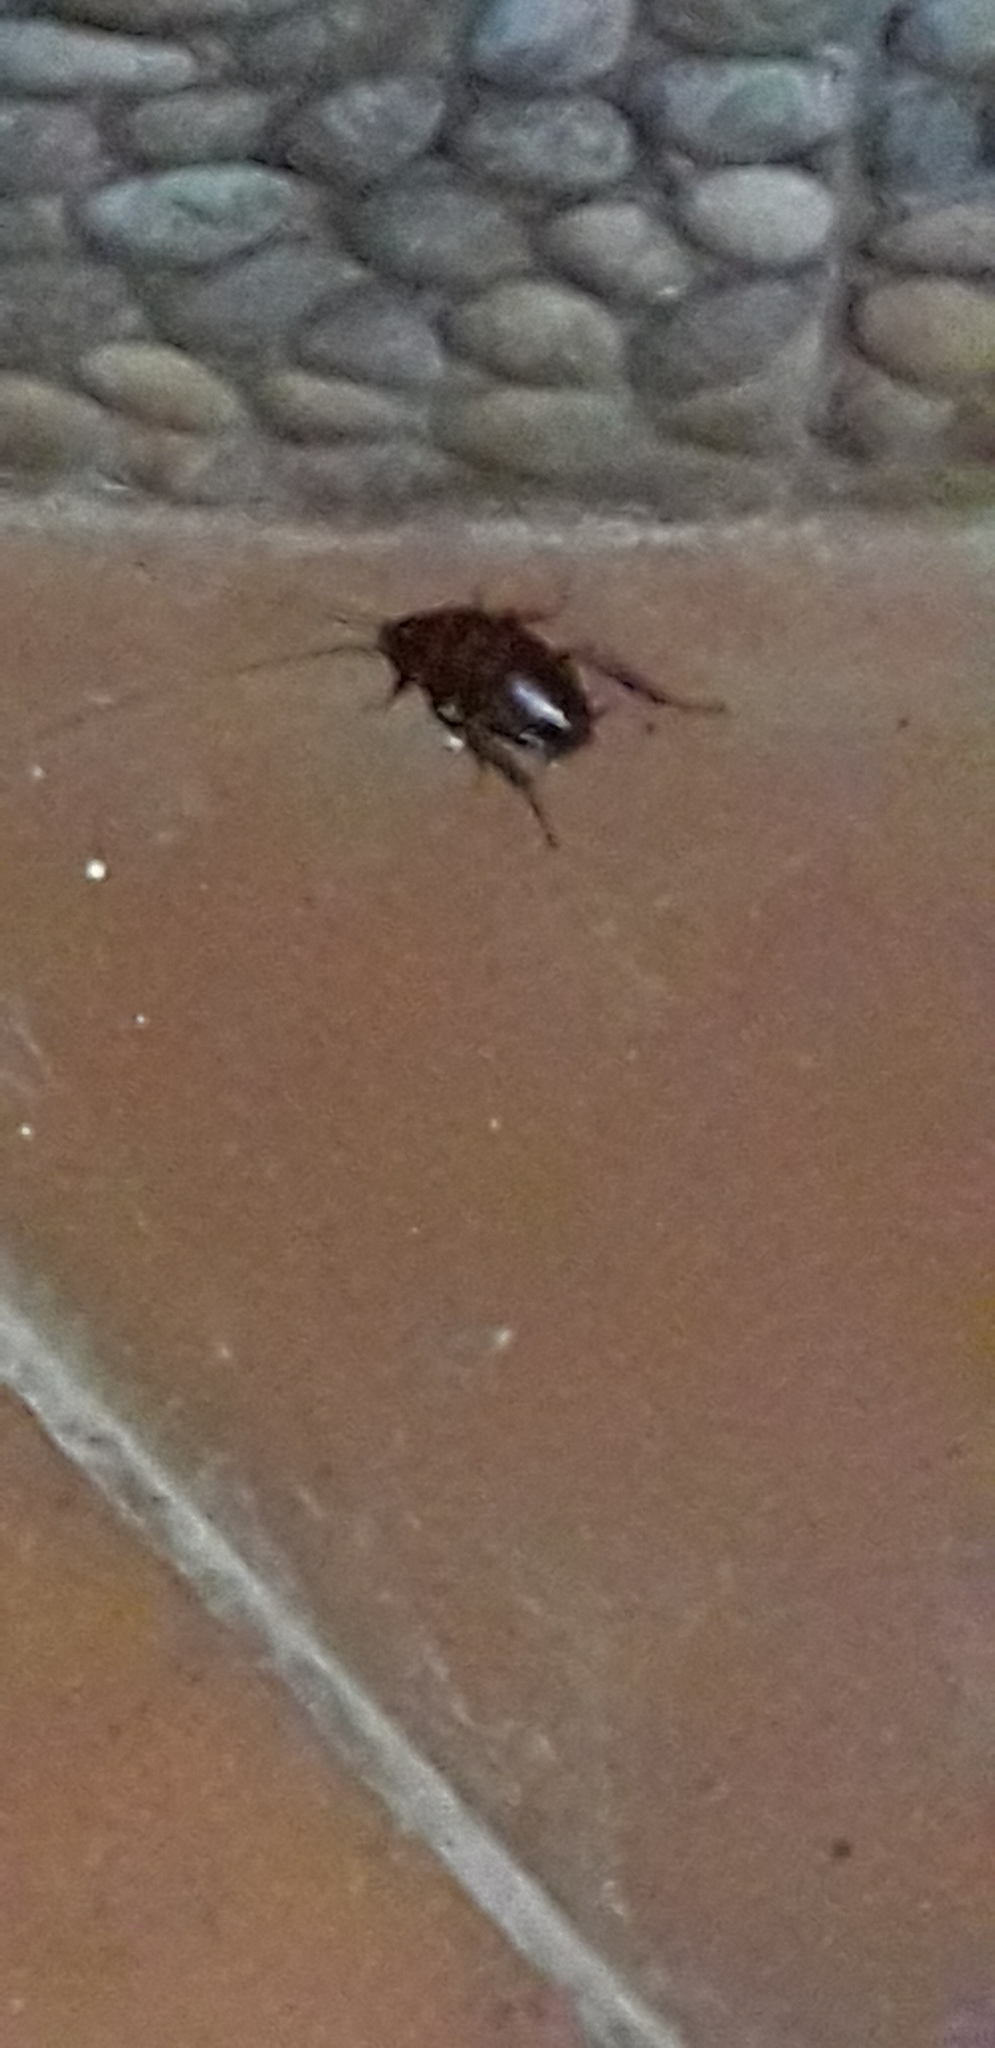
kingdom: Animalia
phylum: Arthropoda
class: Insecta
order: Blattodea
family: Blattidae
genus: Periplaneta
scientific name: Periplaneta americana
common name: American cockroach
